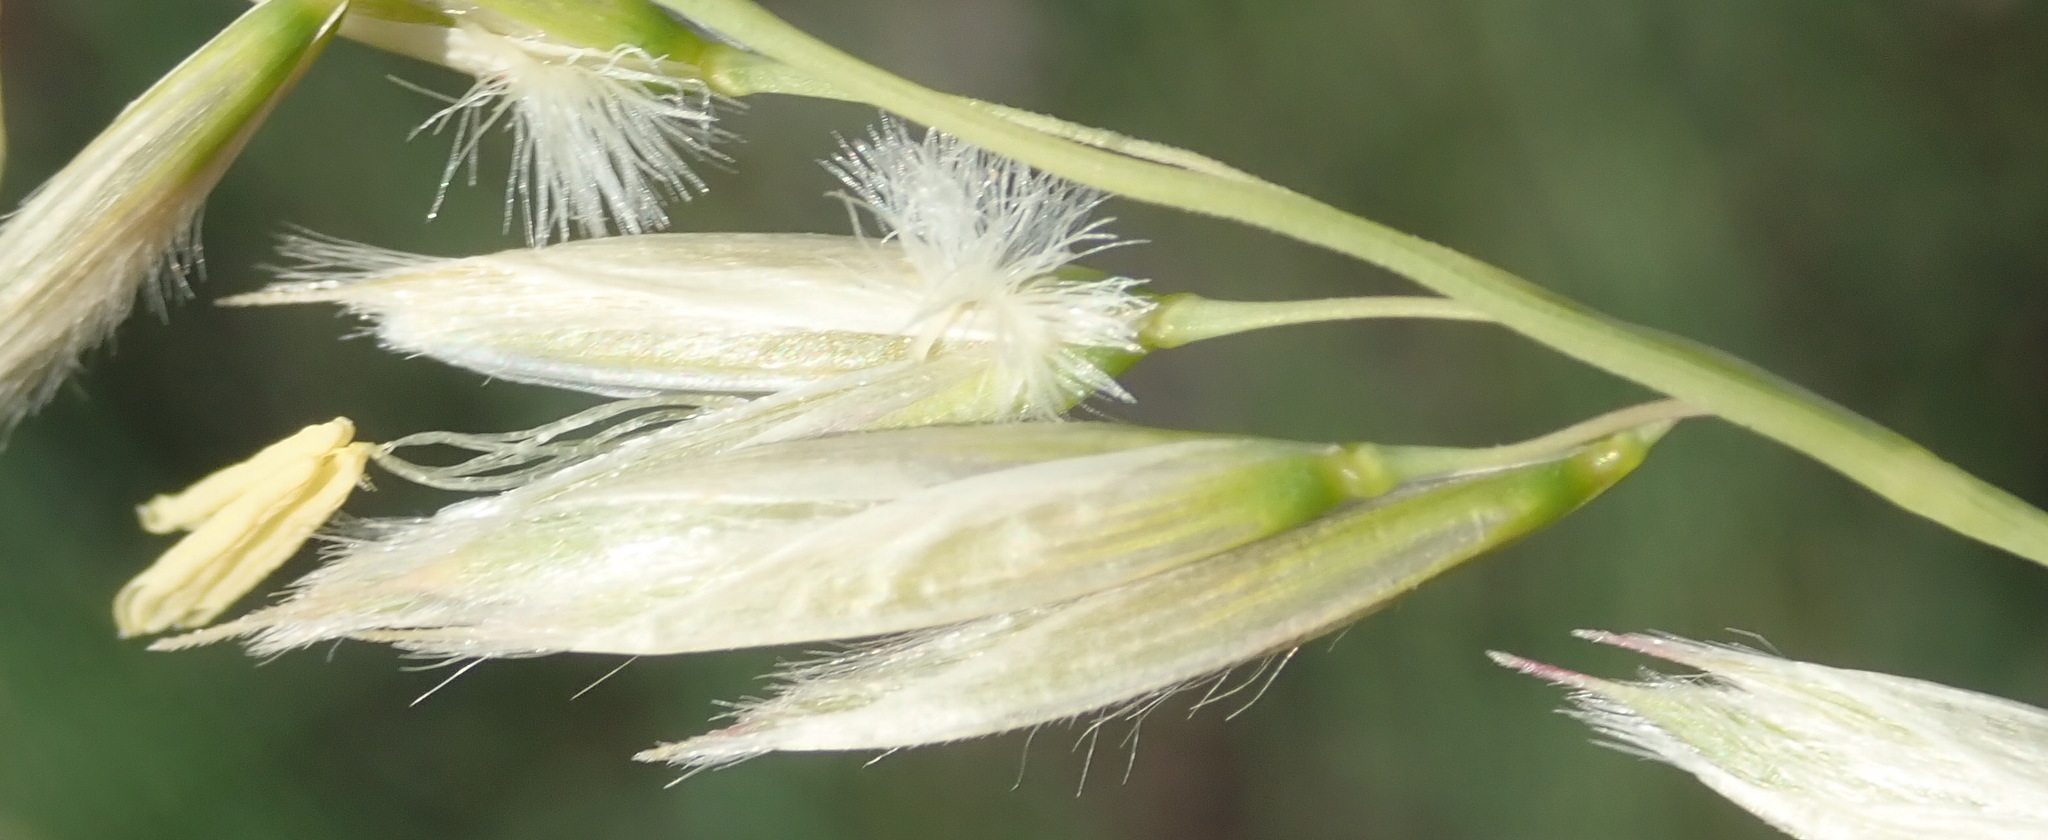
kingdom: Plantae
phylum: Tracheophyta
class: Liliopsida
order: Poales
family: Poaceae
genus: Ehrharta
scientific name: Ehrharta villosa
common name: Pyp grass
